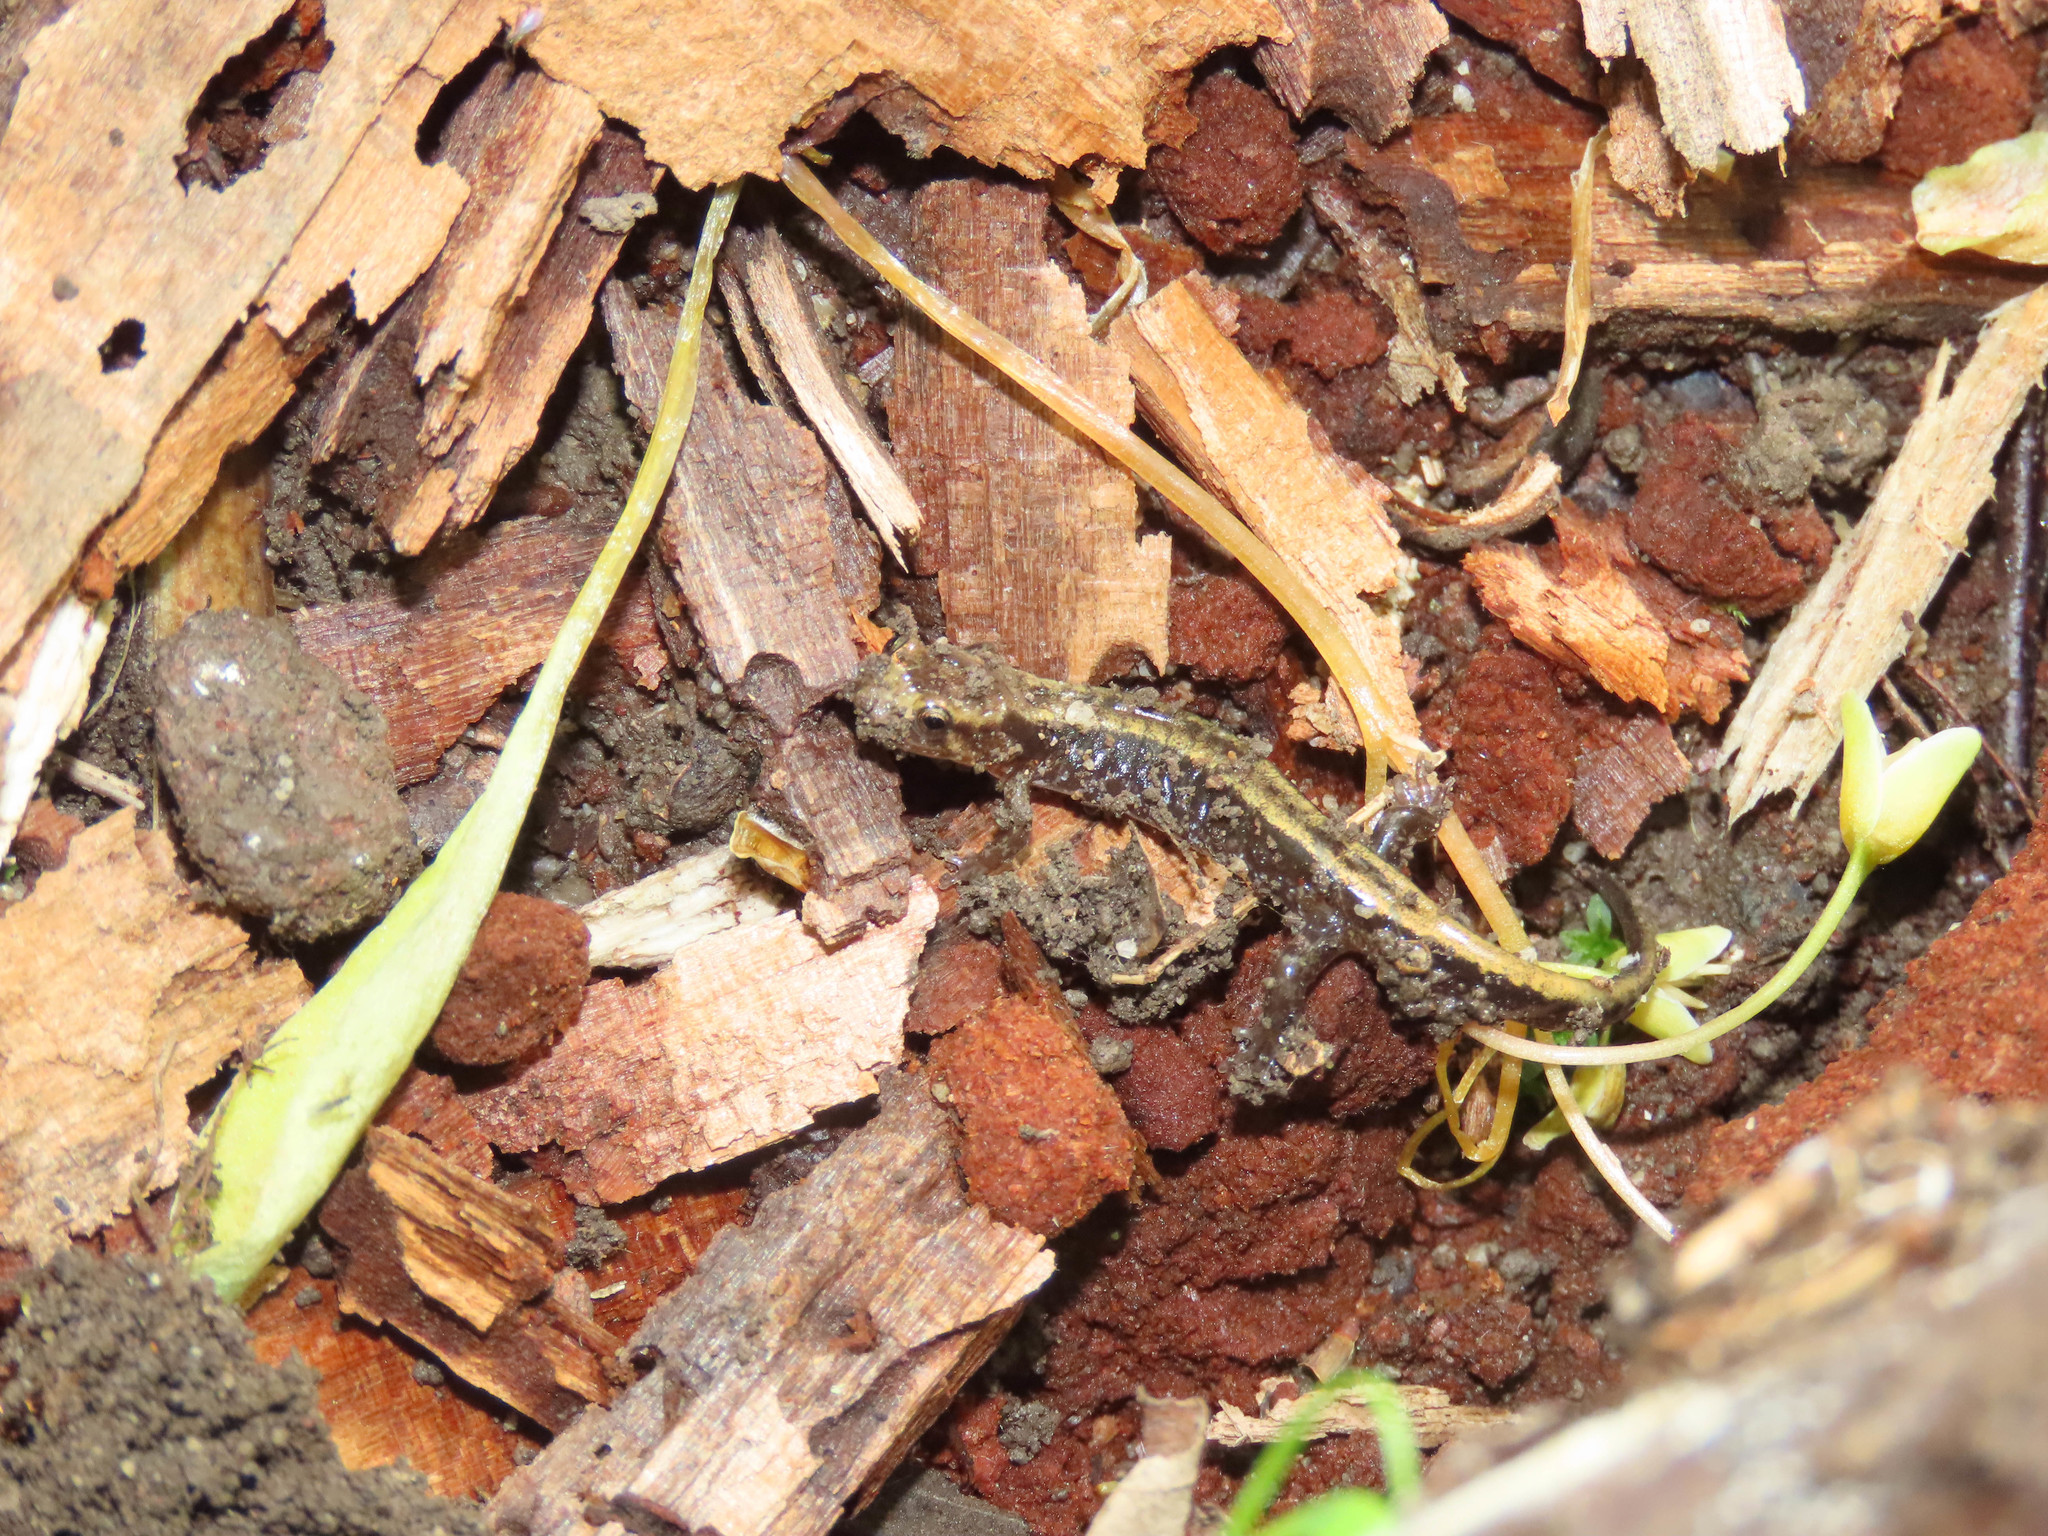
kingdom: Animalia
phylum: Chordata
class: Amphibia
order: Caudata
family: Plethodontidae
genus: Desmognathus
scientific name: Desmognathus ochrophaeus
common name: Allegheny mountain dusky salamander
